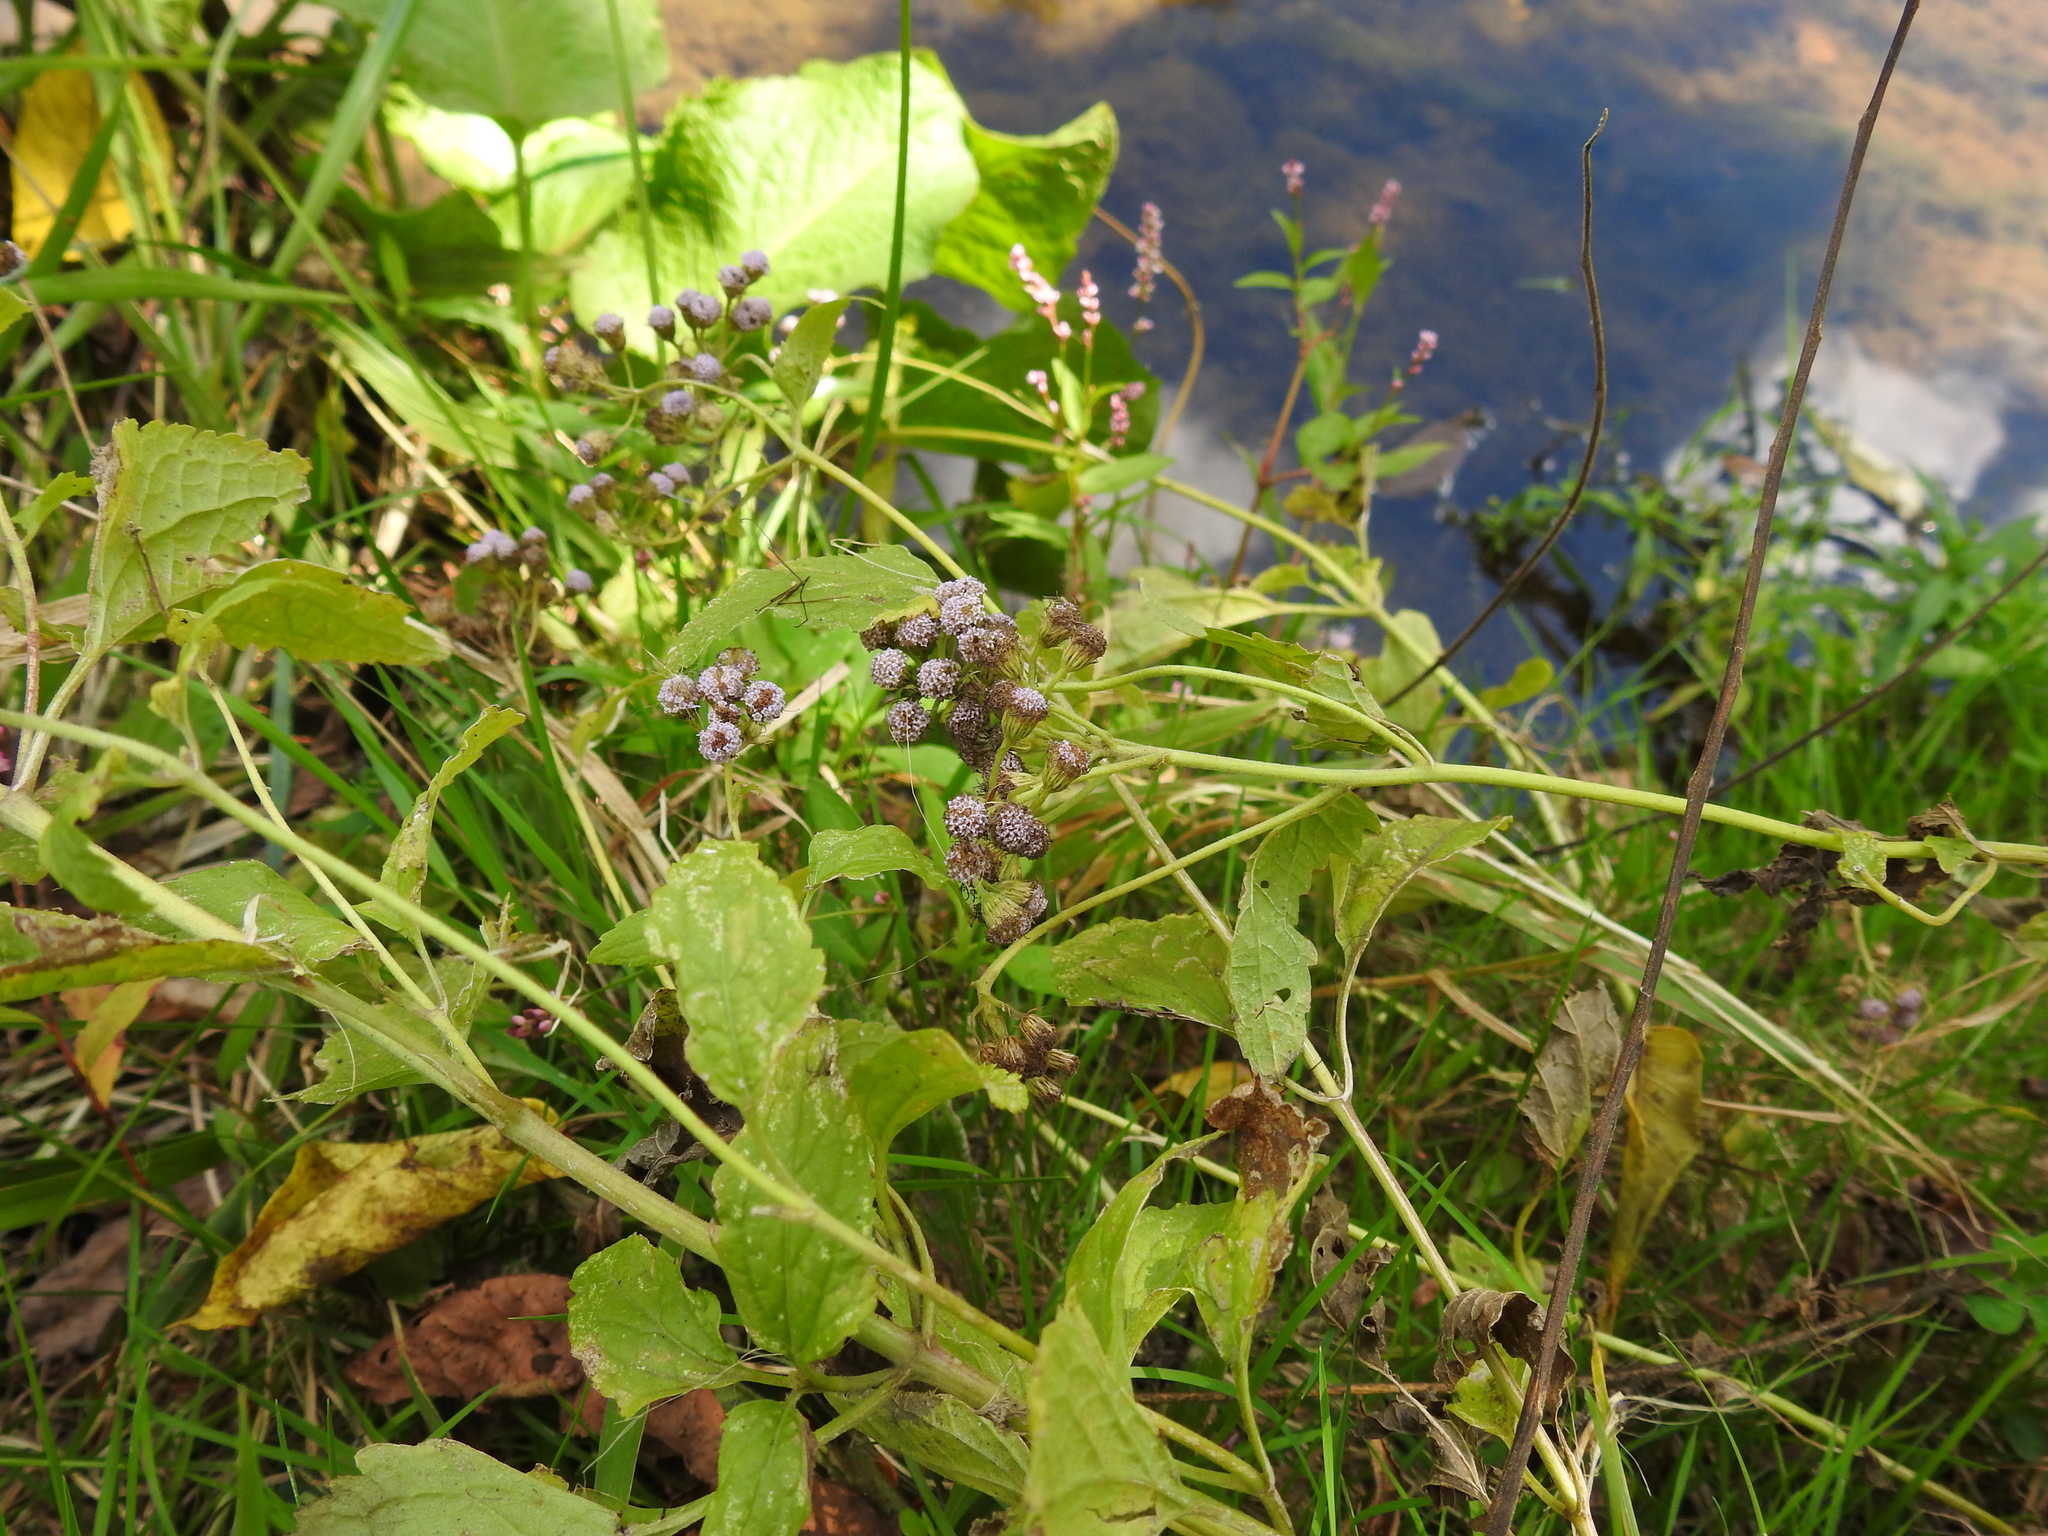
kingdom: Plantae
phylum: Tracheophyta
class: Magnoliopsida
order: Asterales
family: Asteraceae
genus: Conoclinium
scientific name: Conoclinium coelestinum
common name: Blue mistflower
